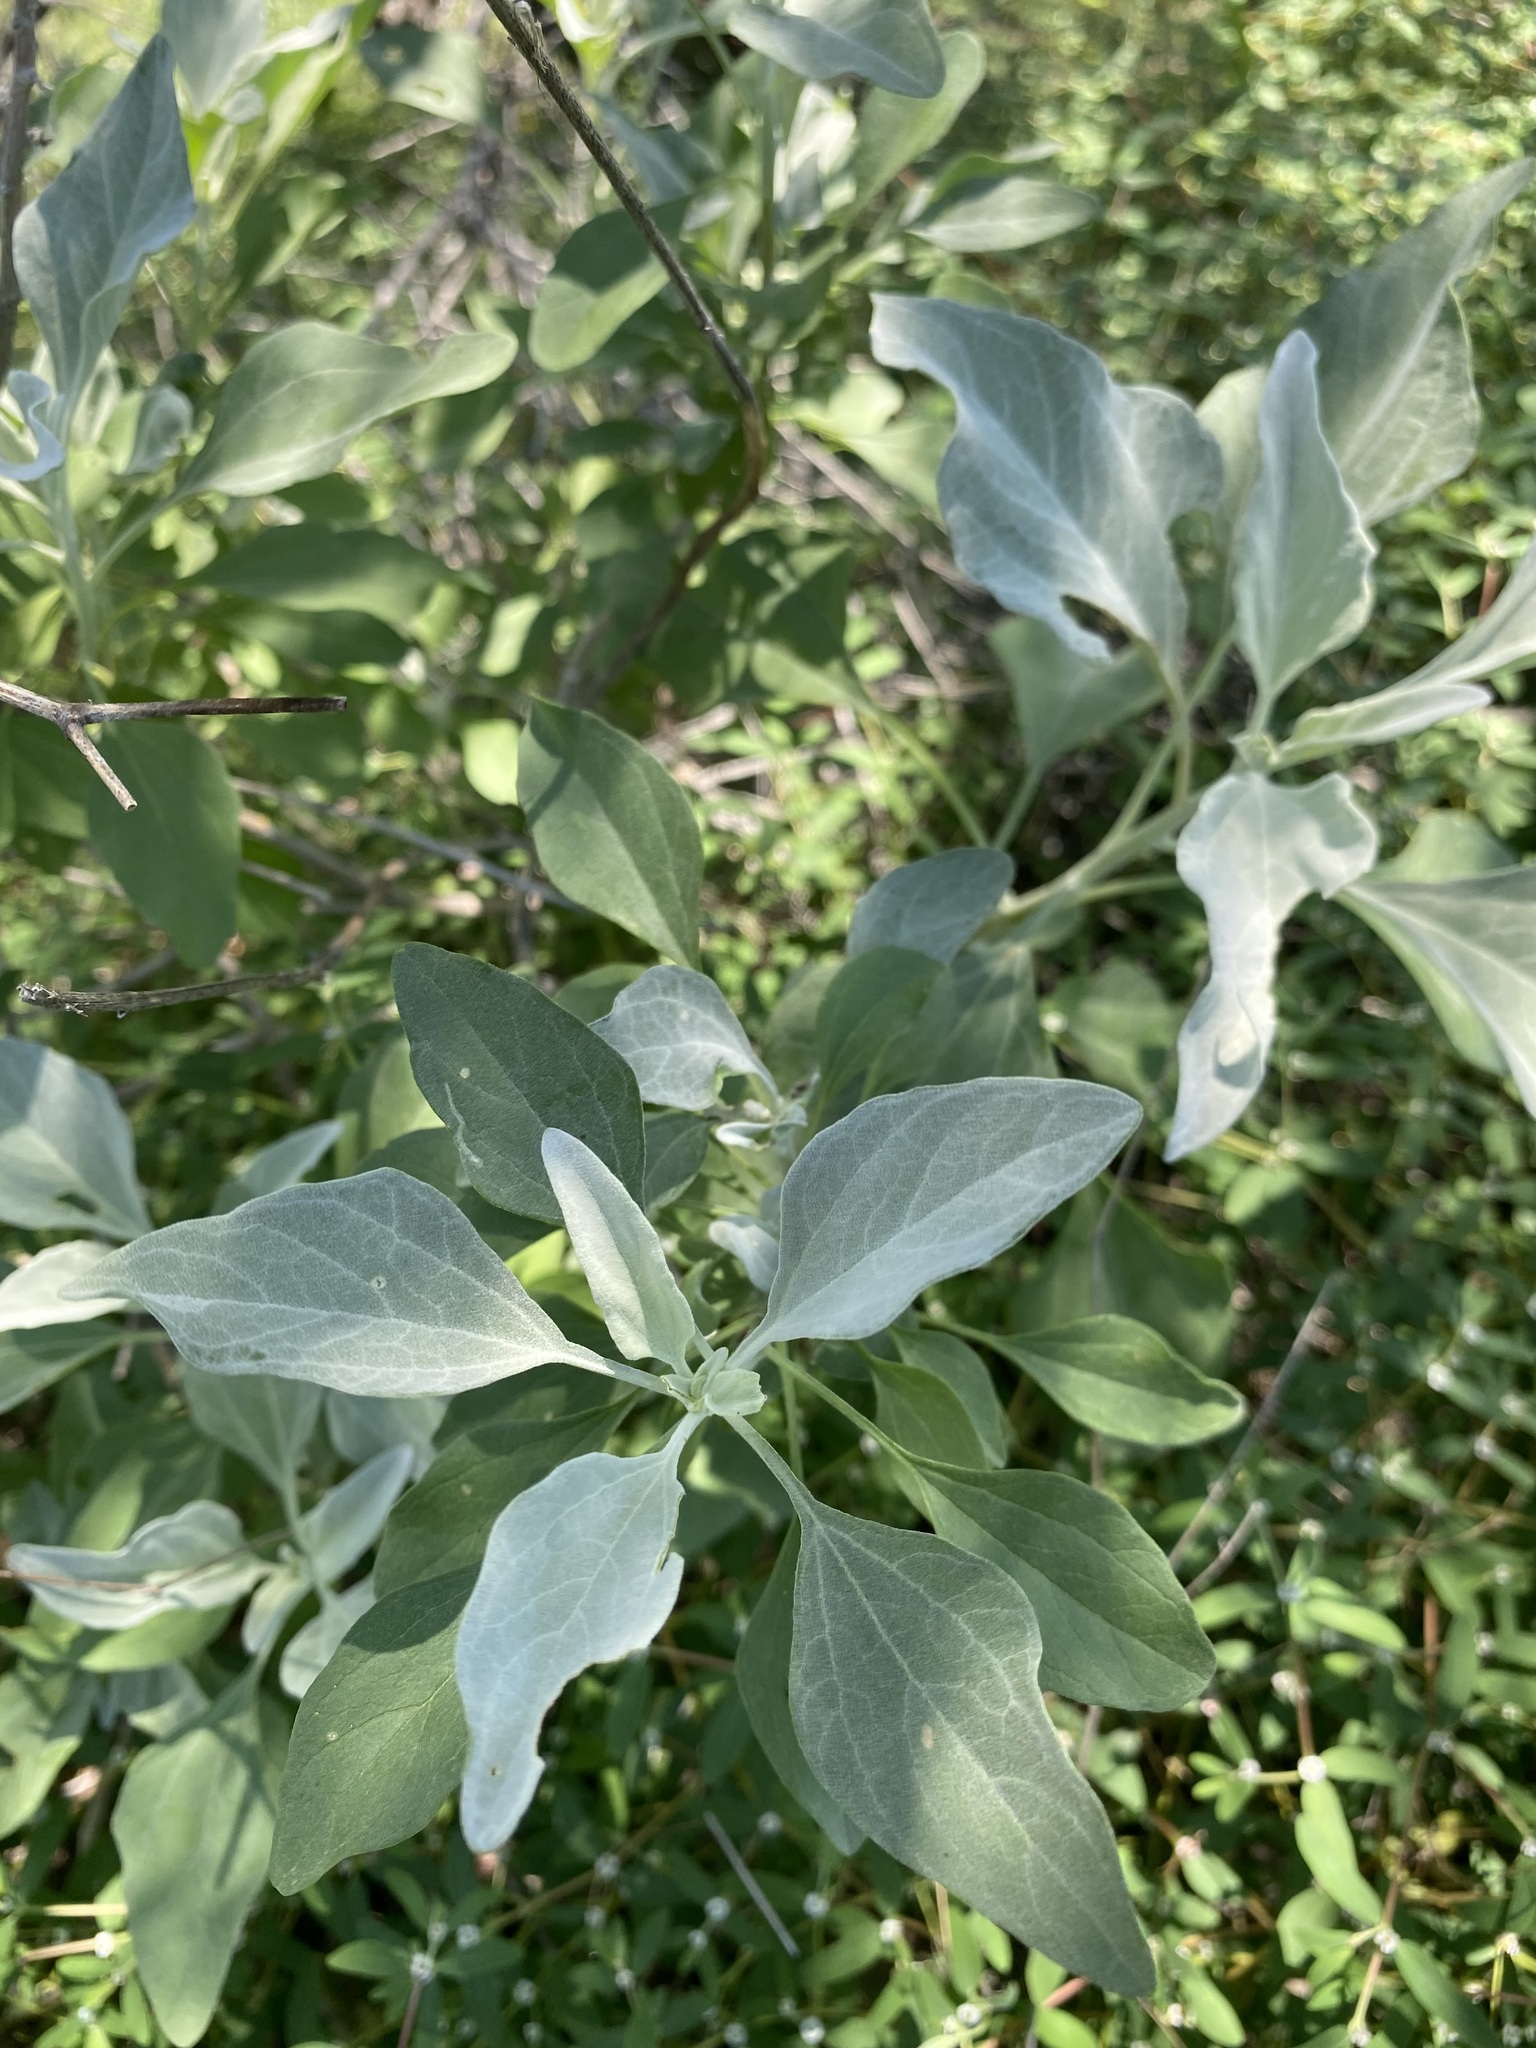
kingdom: Plantae
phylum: Tracheophyta
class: Magnoliopsida
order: Asterales
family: Asteraceae
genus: Encelia
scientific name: Encelia farinosa
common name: Brittlebush
